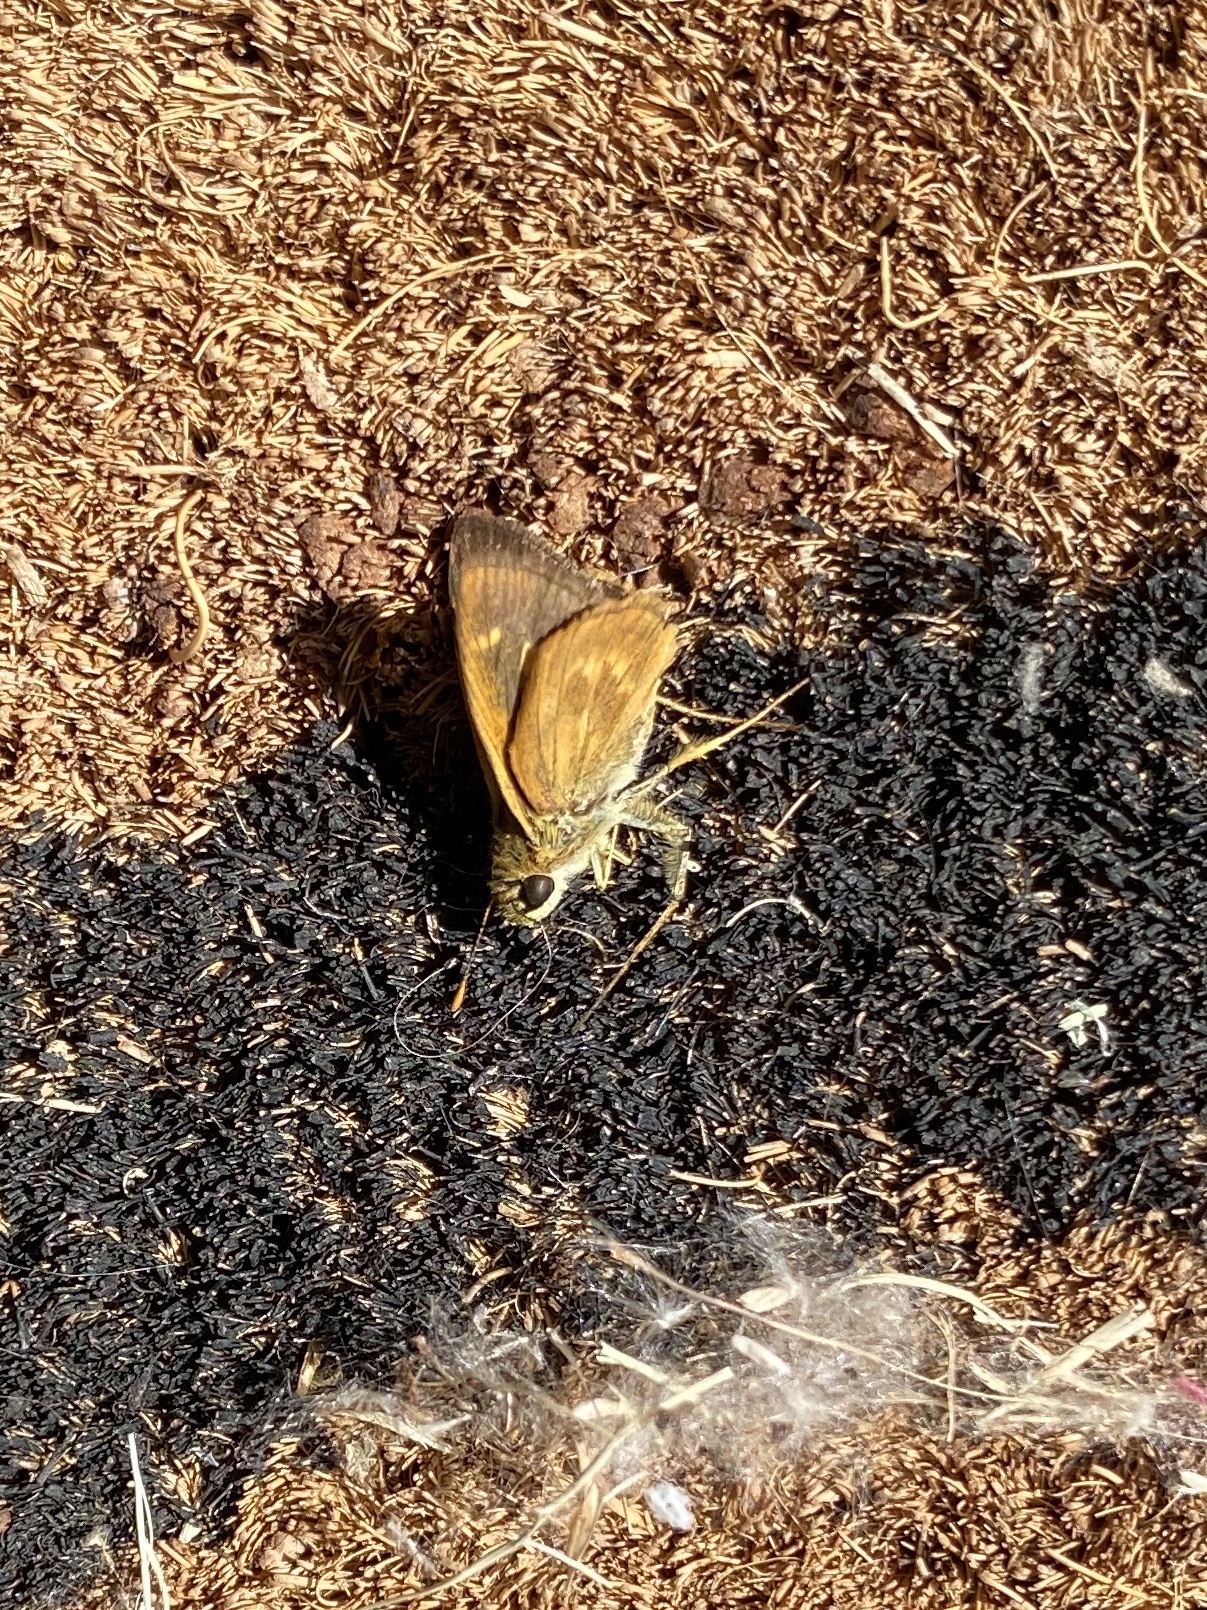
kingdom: Animalia
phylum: Arthropoda
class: Insecta
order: Lepidoptera
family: Hesperiidae
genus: Polites
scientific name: Polites otho
